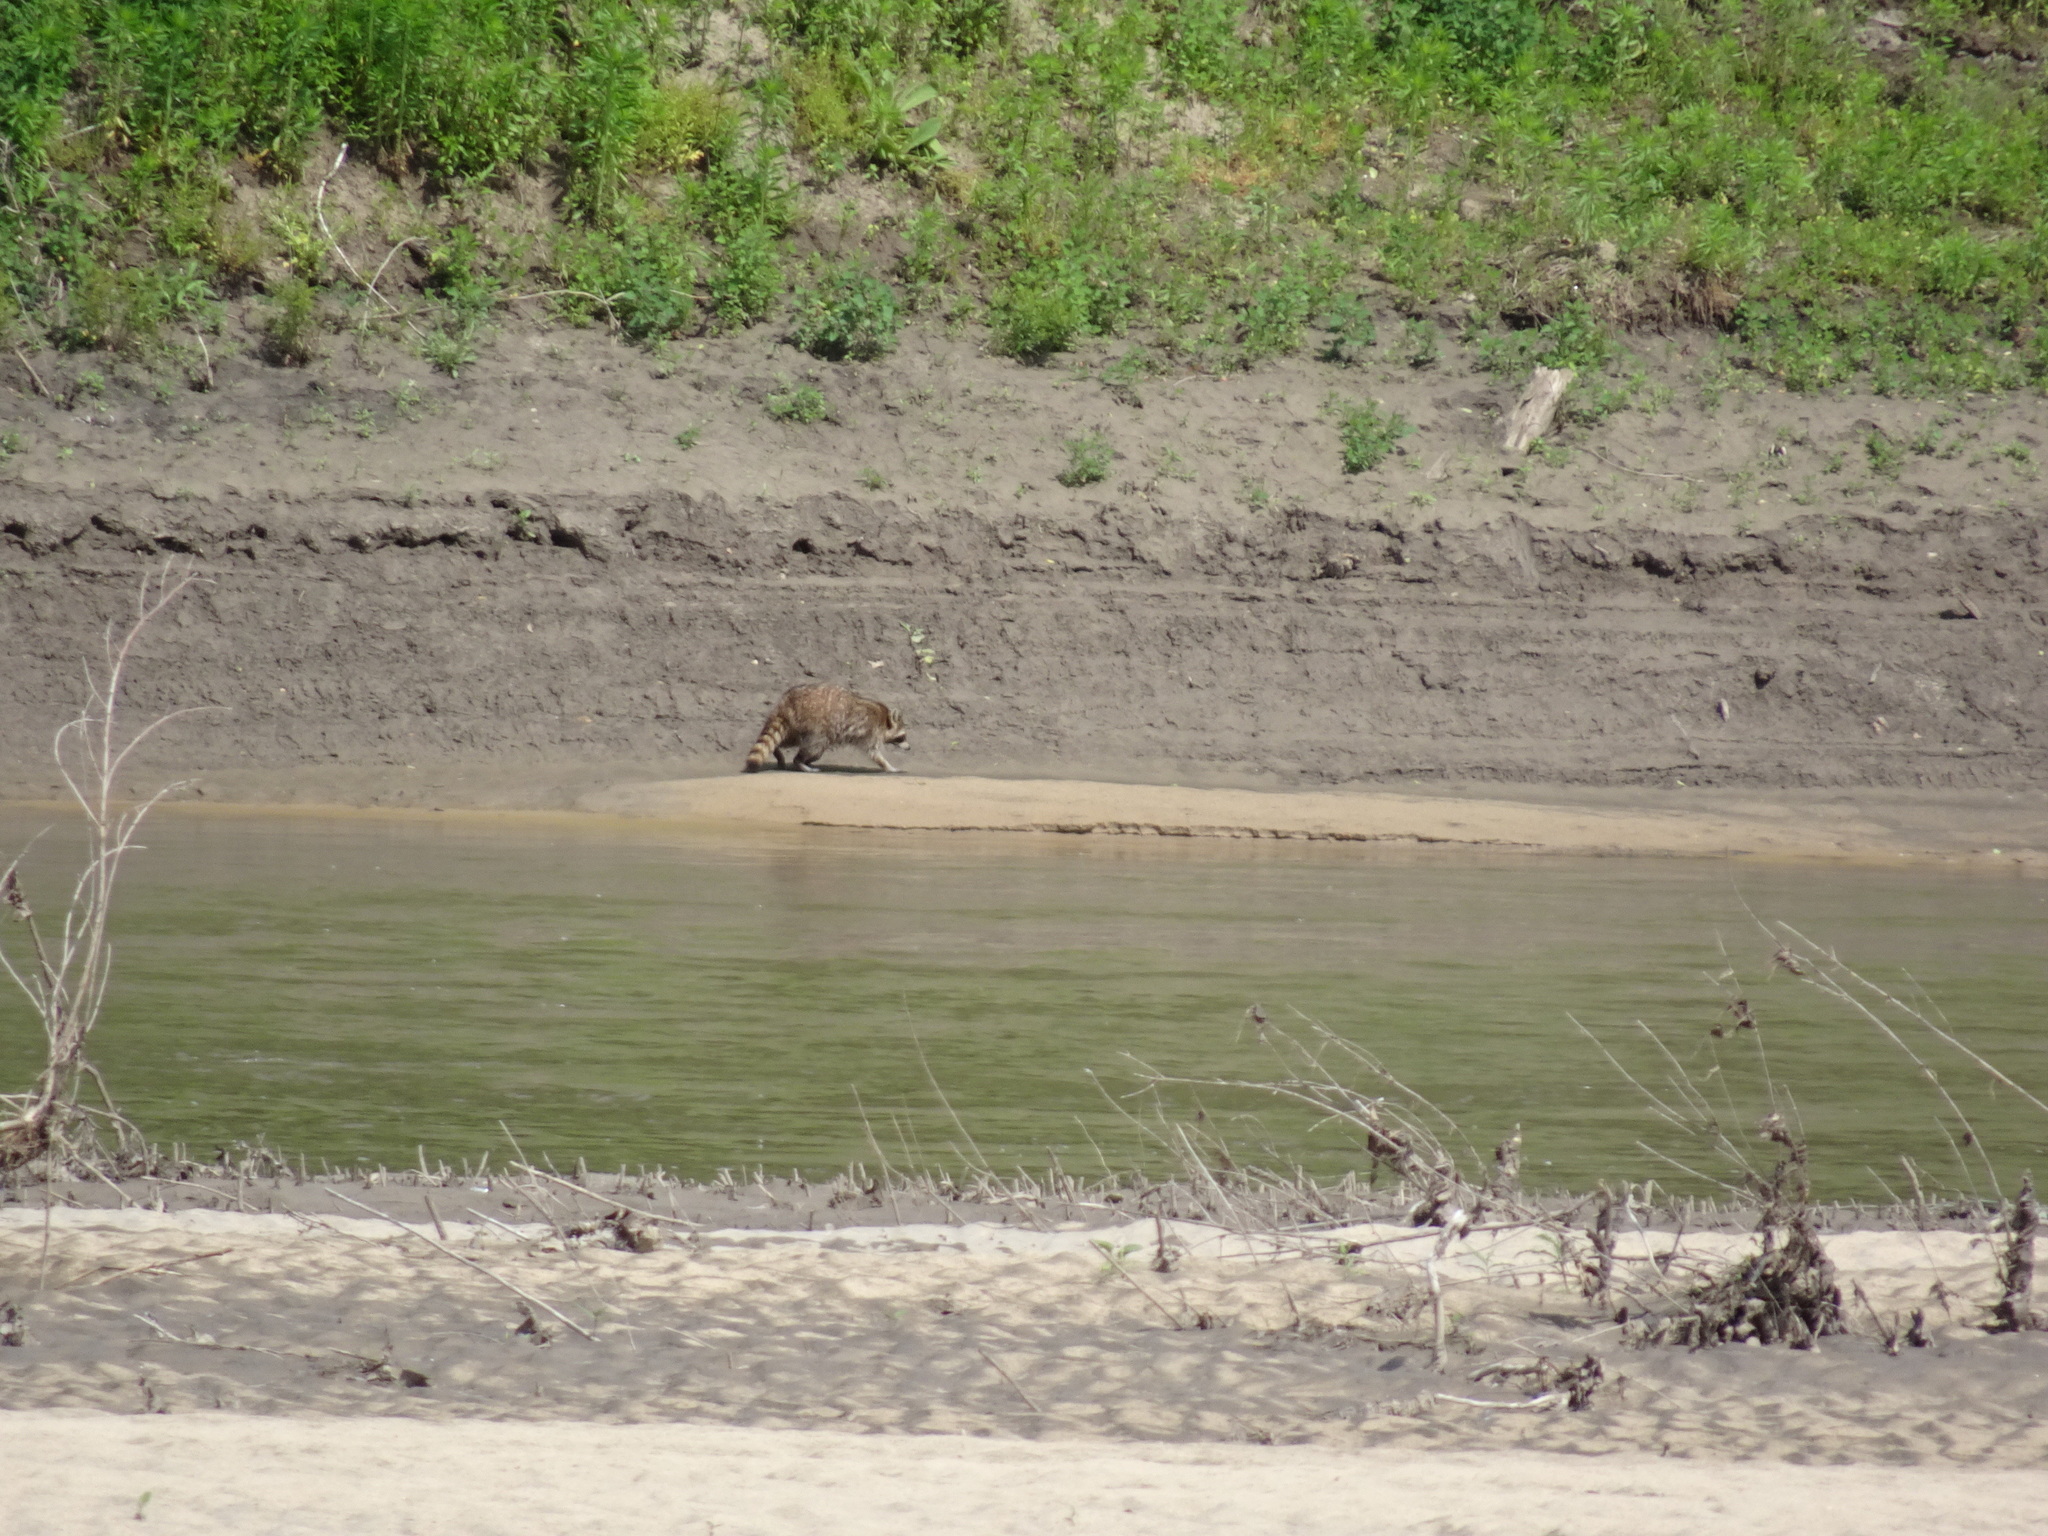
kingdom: Animalia
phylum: Chordata
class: Mammalia
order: Carnivora
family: Procyonidae
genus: Procyon
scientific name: Procyon lotor
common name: Raccoon
